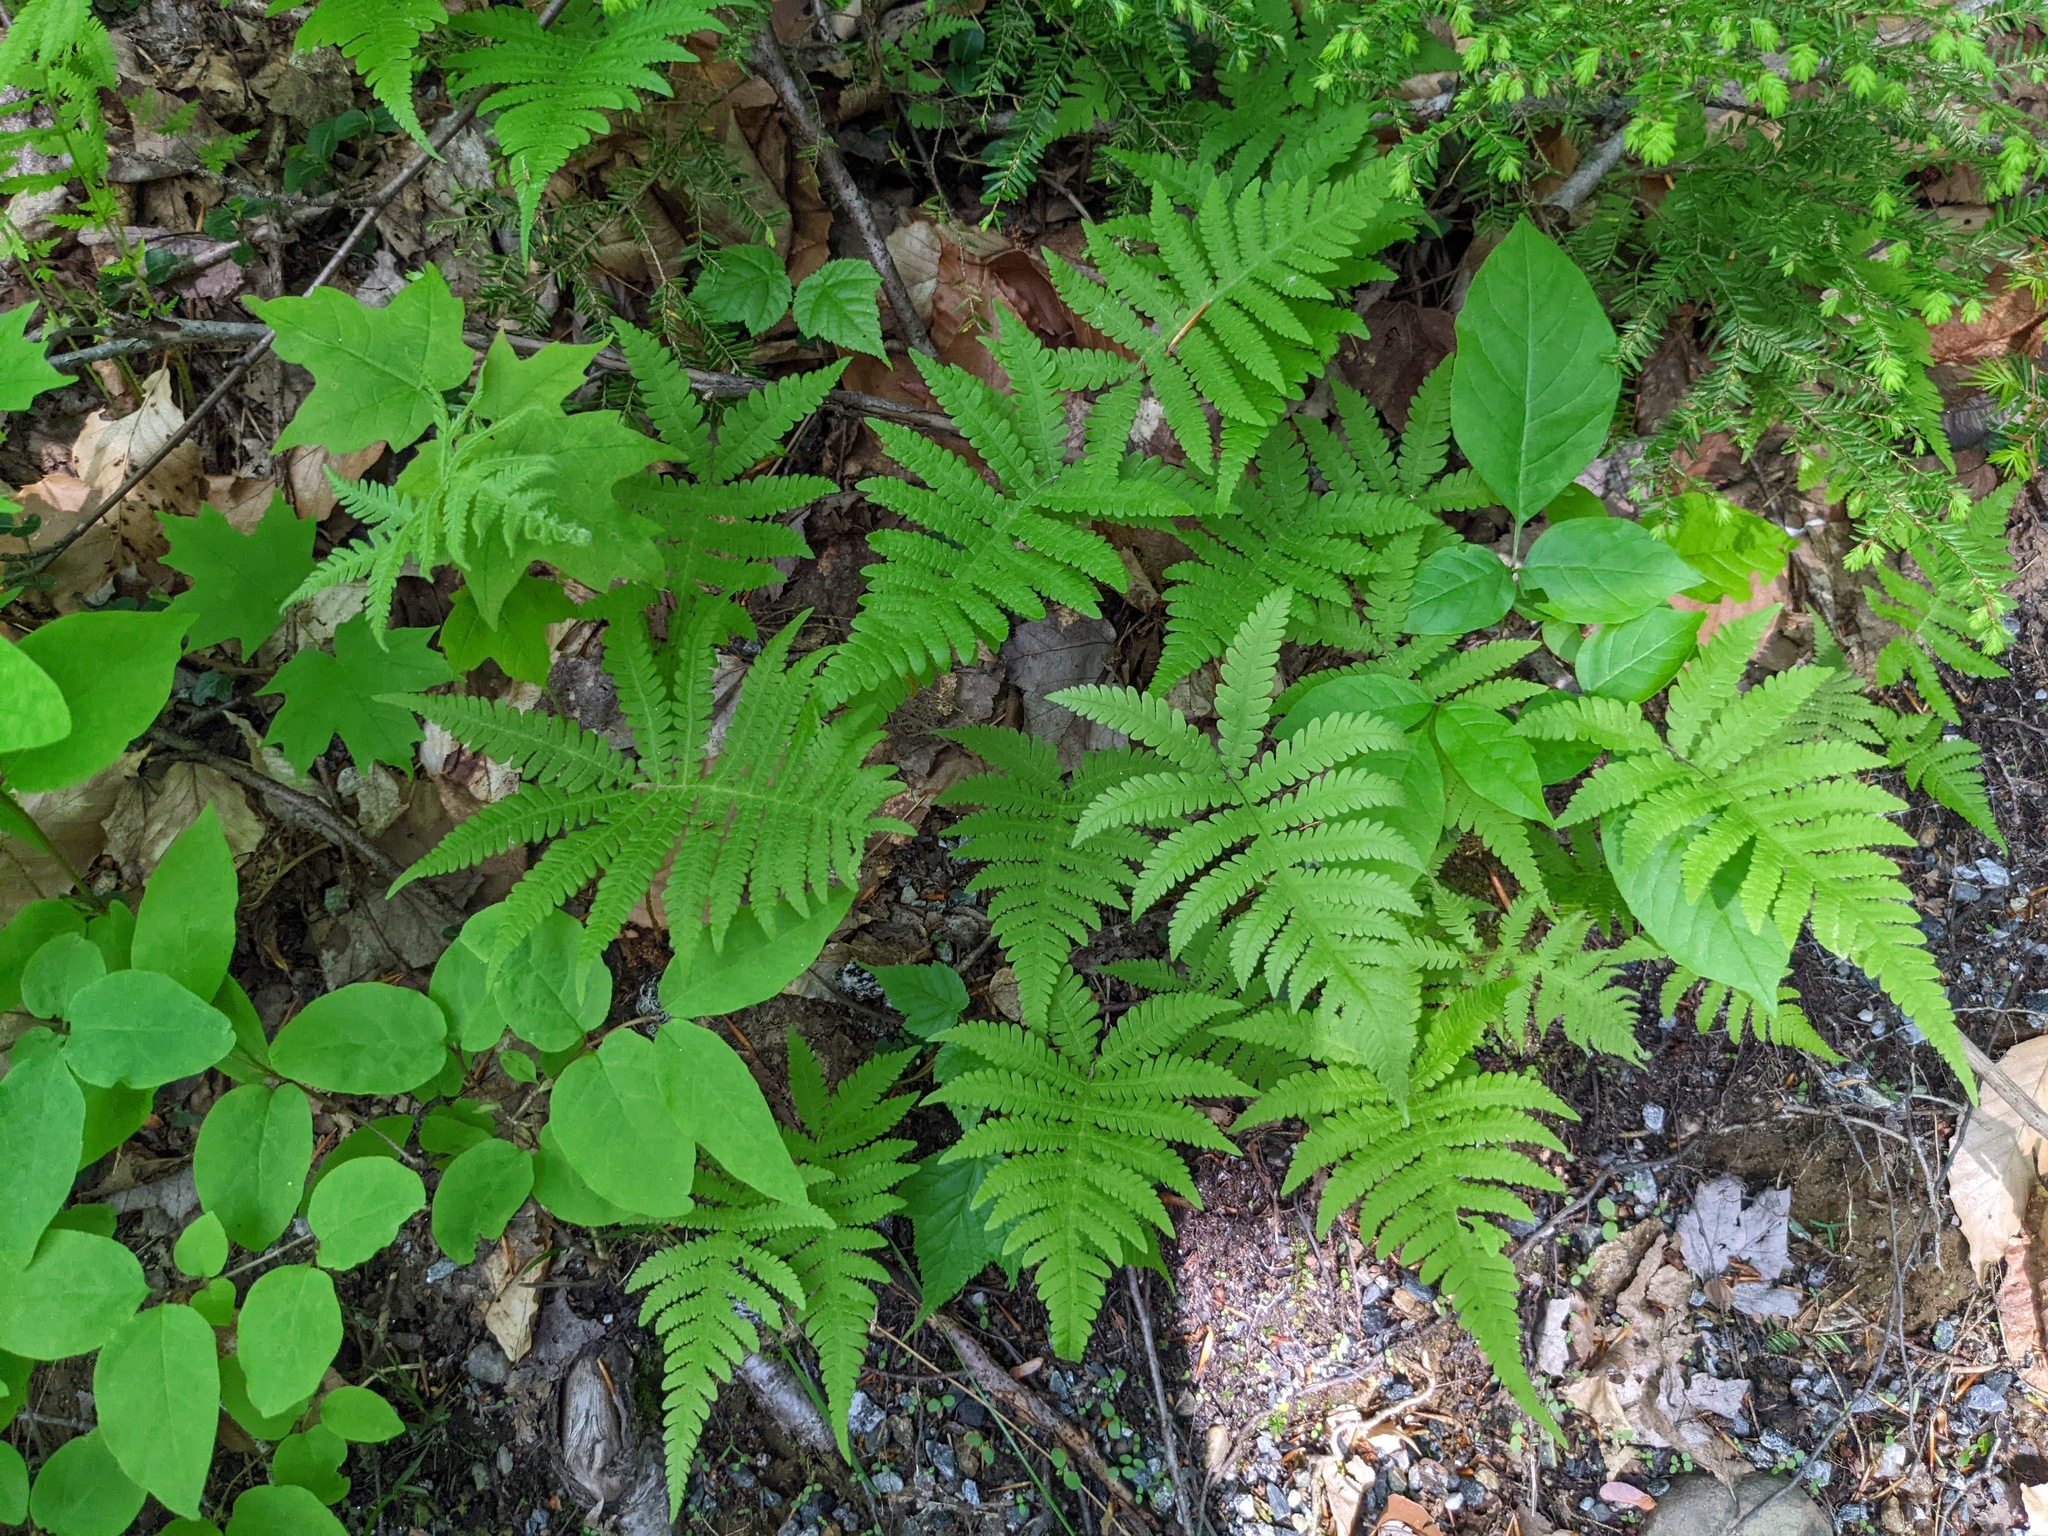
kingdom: Plantae
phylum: Tracheophyta
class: Polypodiopsida
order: Polypodiales
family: Thelypteridaceae
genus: Phegopteris
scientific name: Phegopteris connectilis
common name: Beech fern
